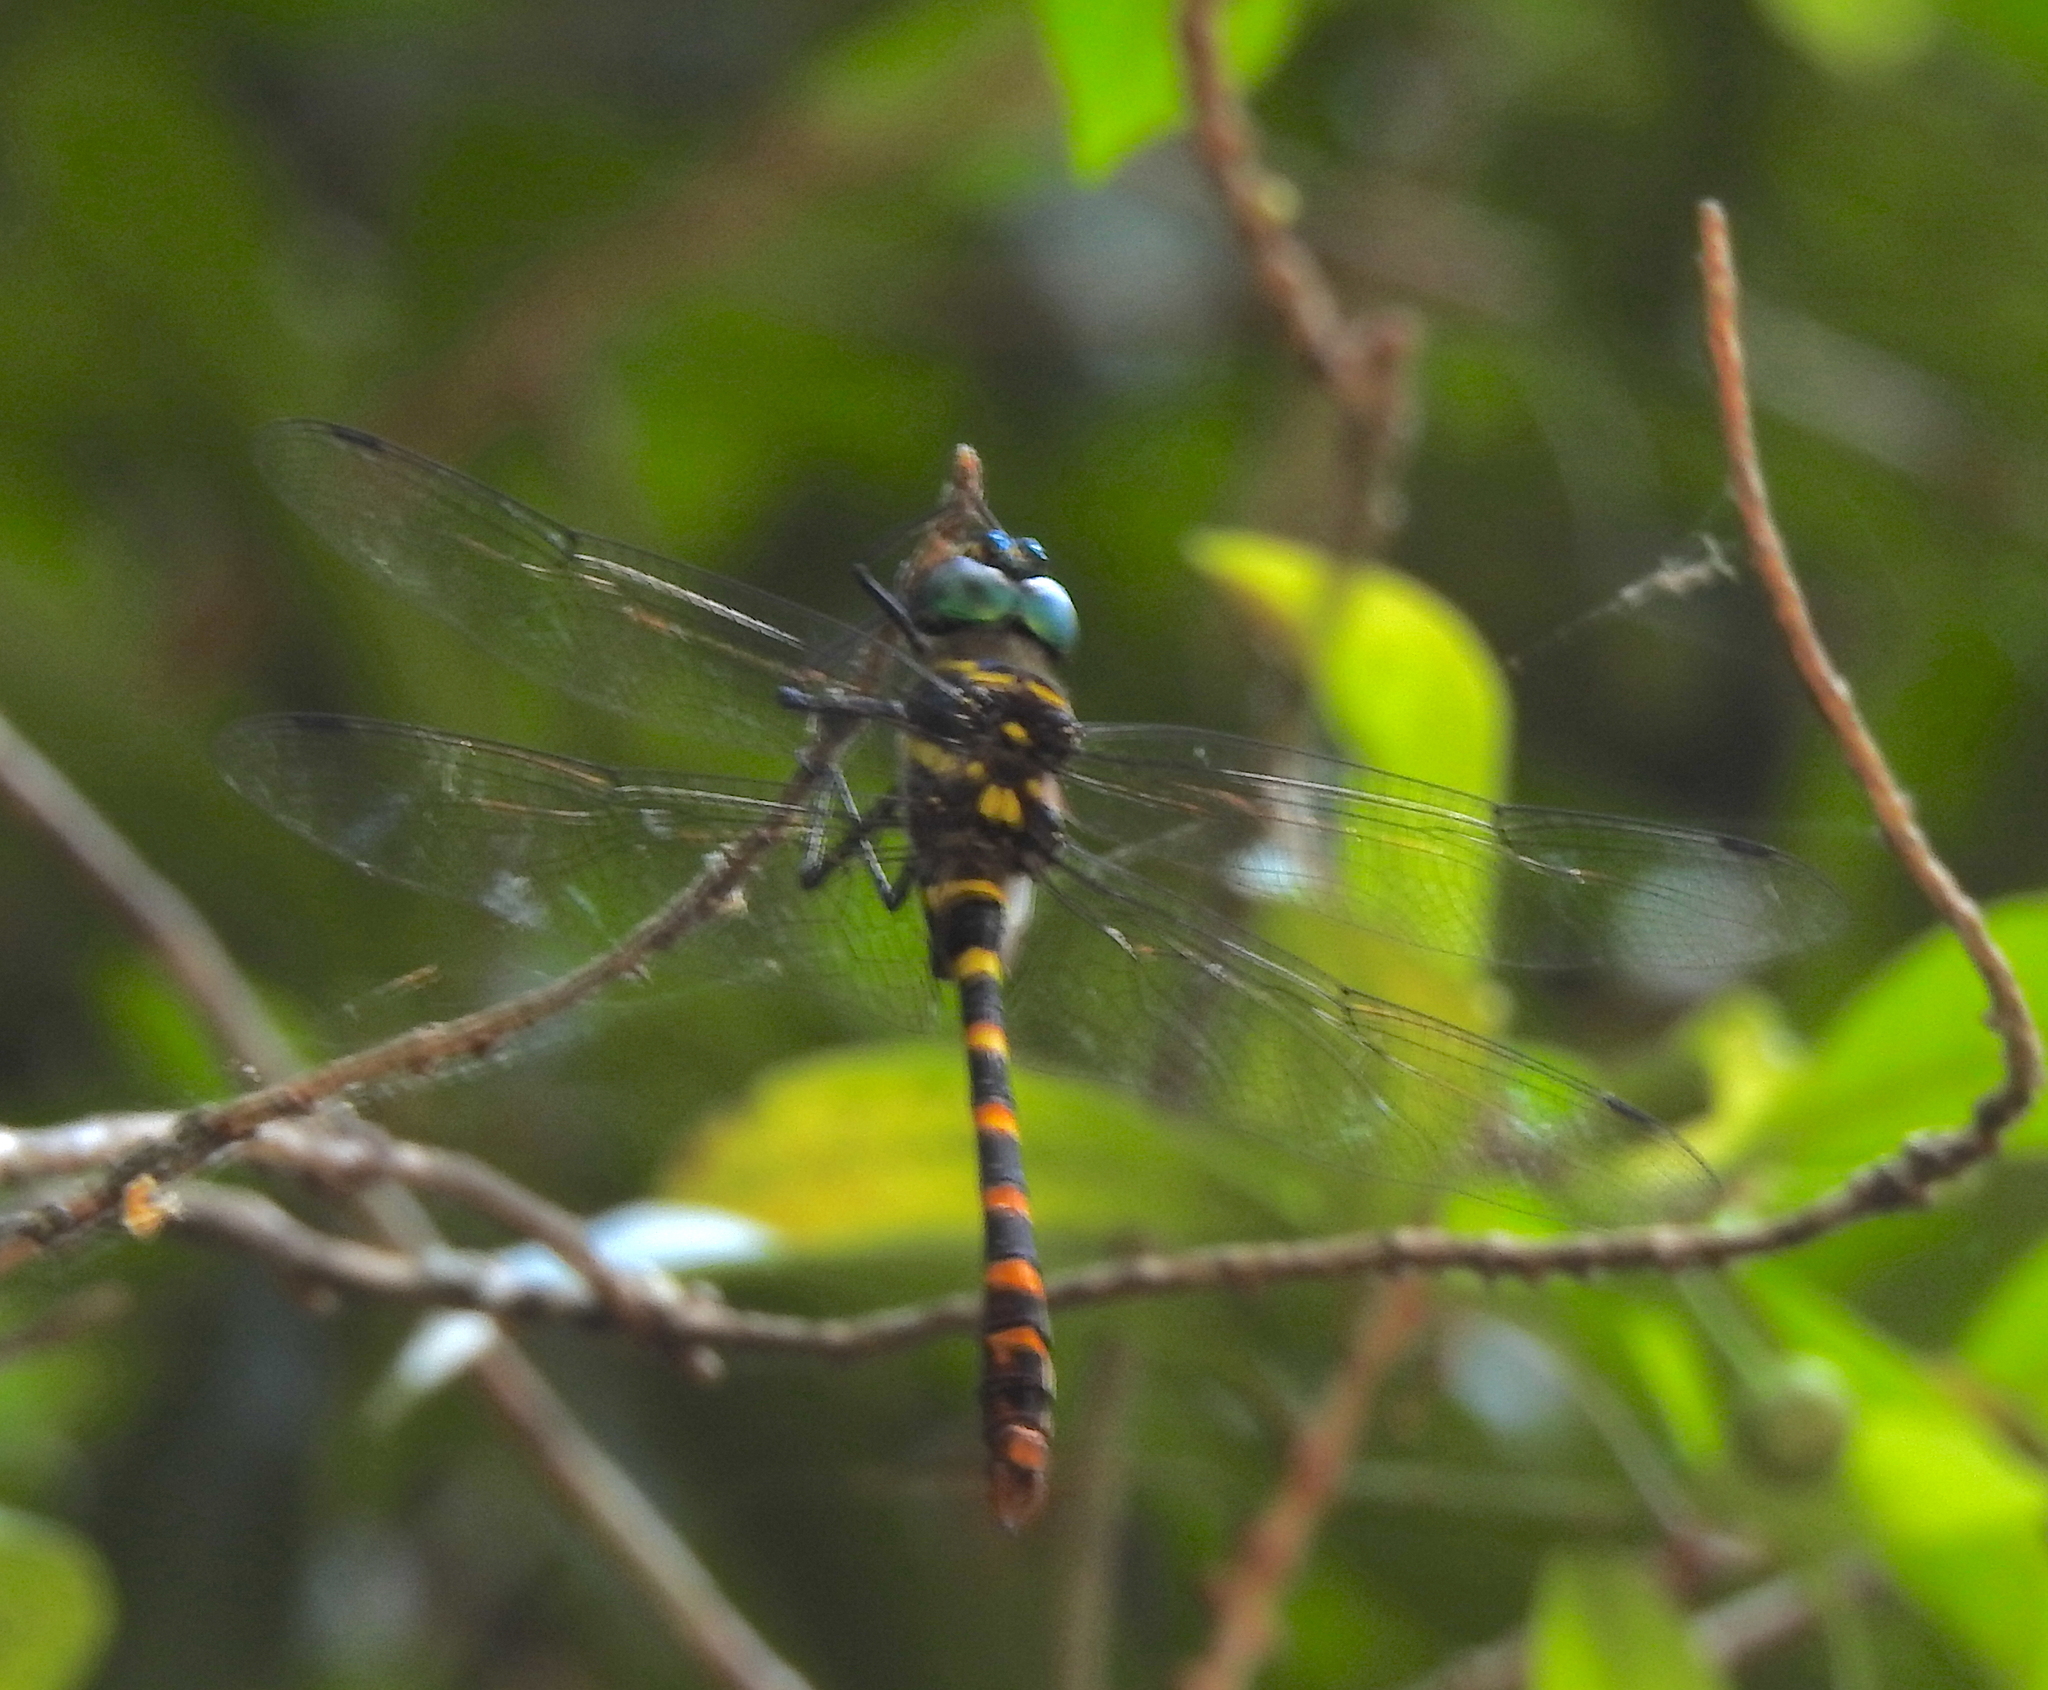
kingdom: Animalia
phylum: Arthropoda
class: Insecta
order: Odonata
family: Macromiidae
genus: Epophthalmia
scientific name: Epophthalmia vittata
